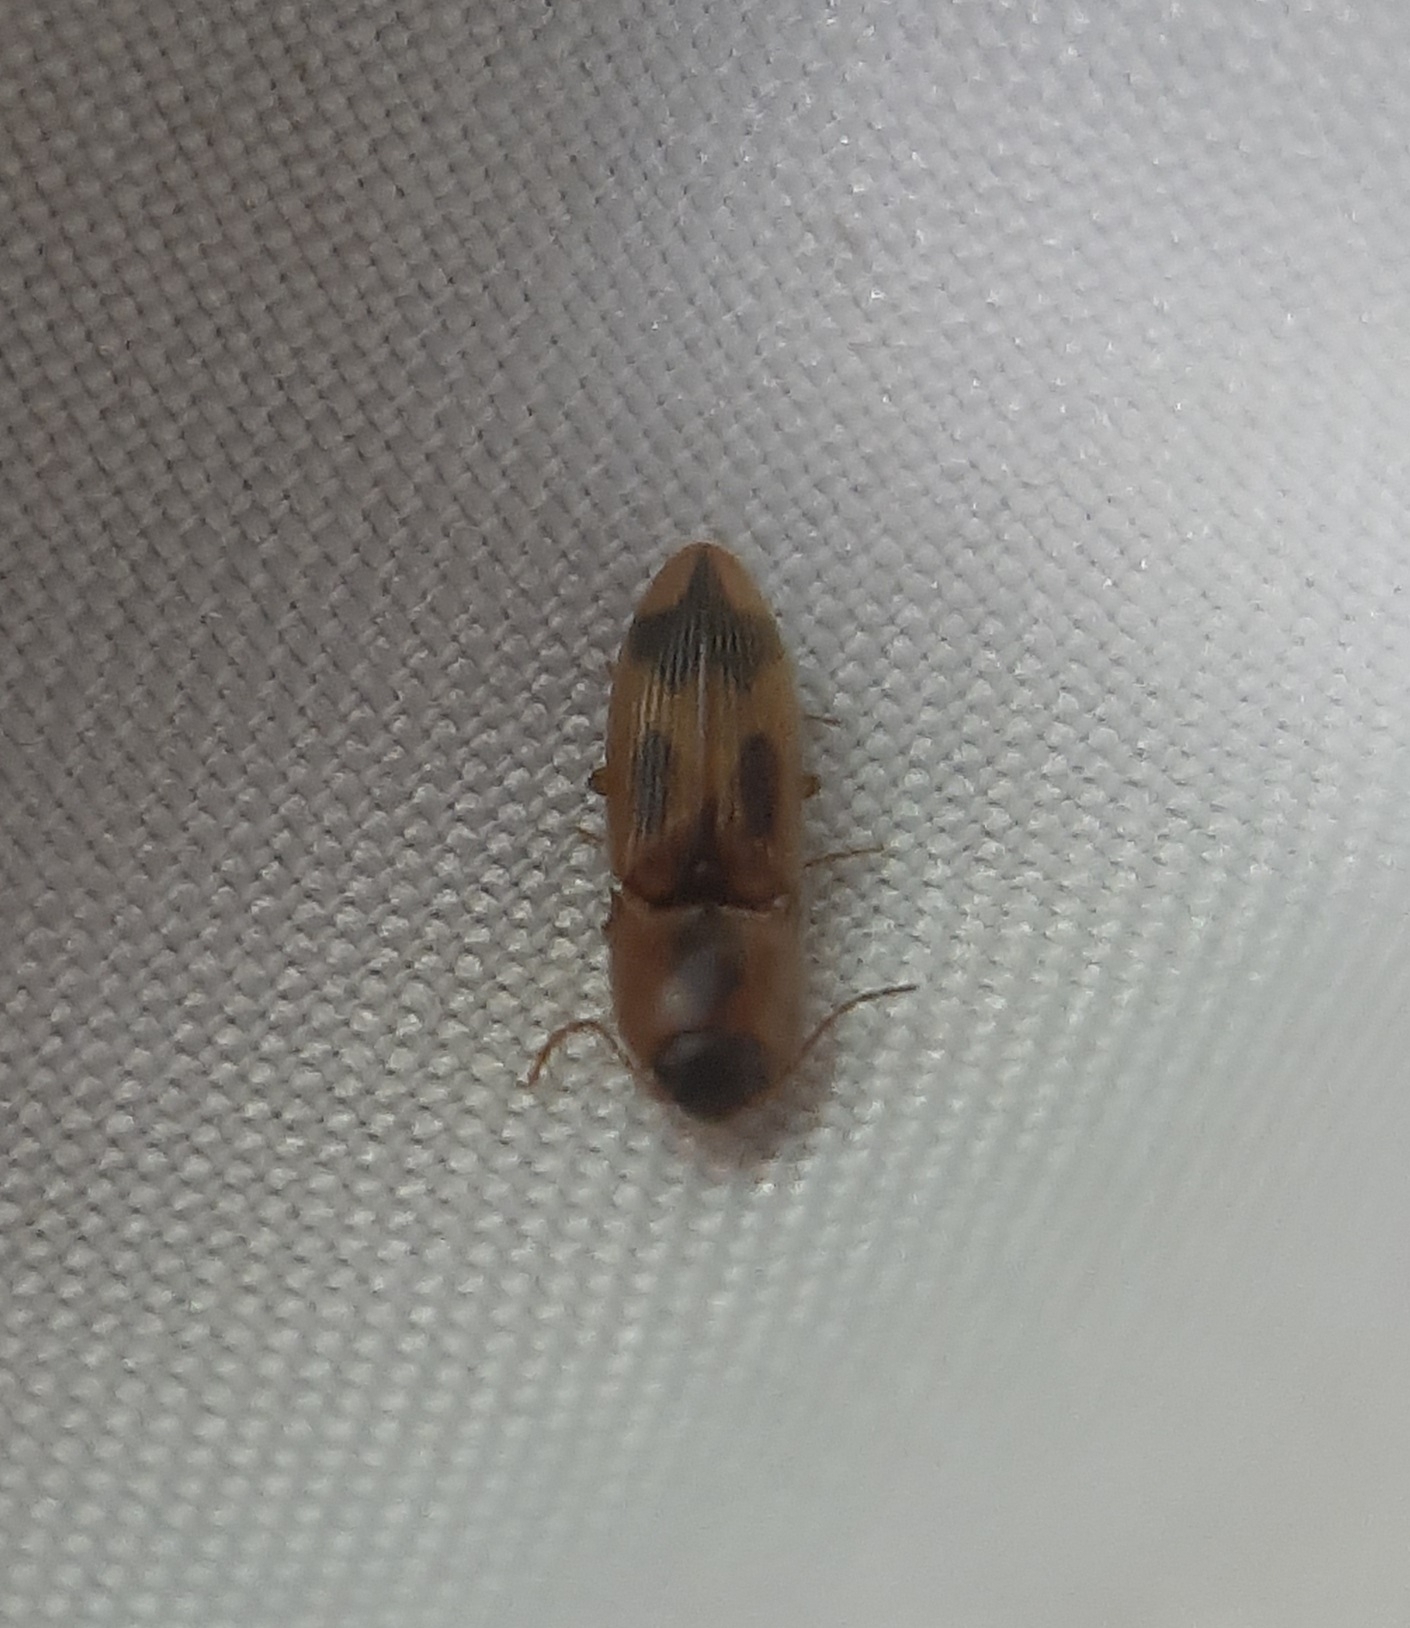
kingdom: Animalia
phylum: Arthropoda
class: Insecta
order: Coleoptera
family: Elateridae
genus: Aeolus
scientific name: Aeolus mellillus
